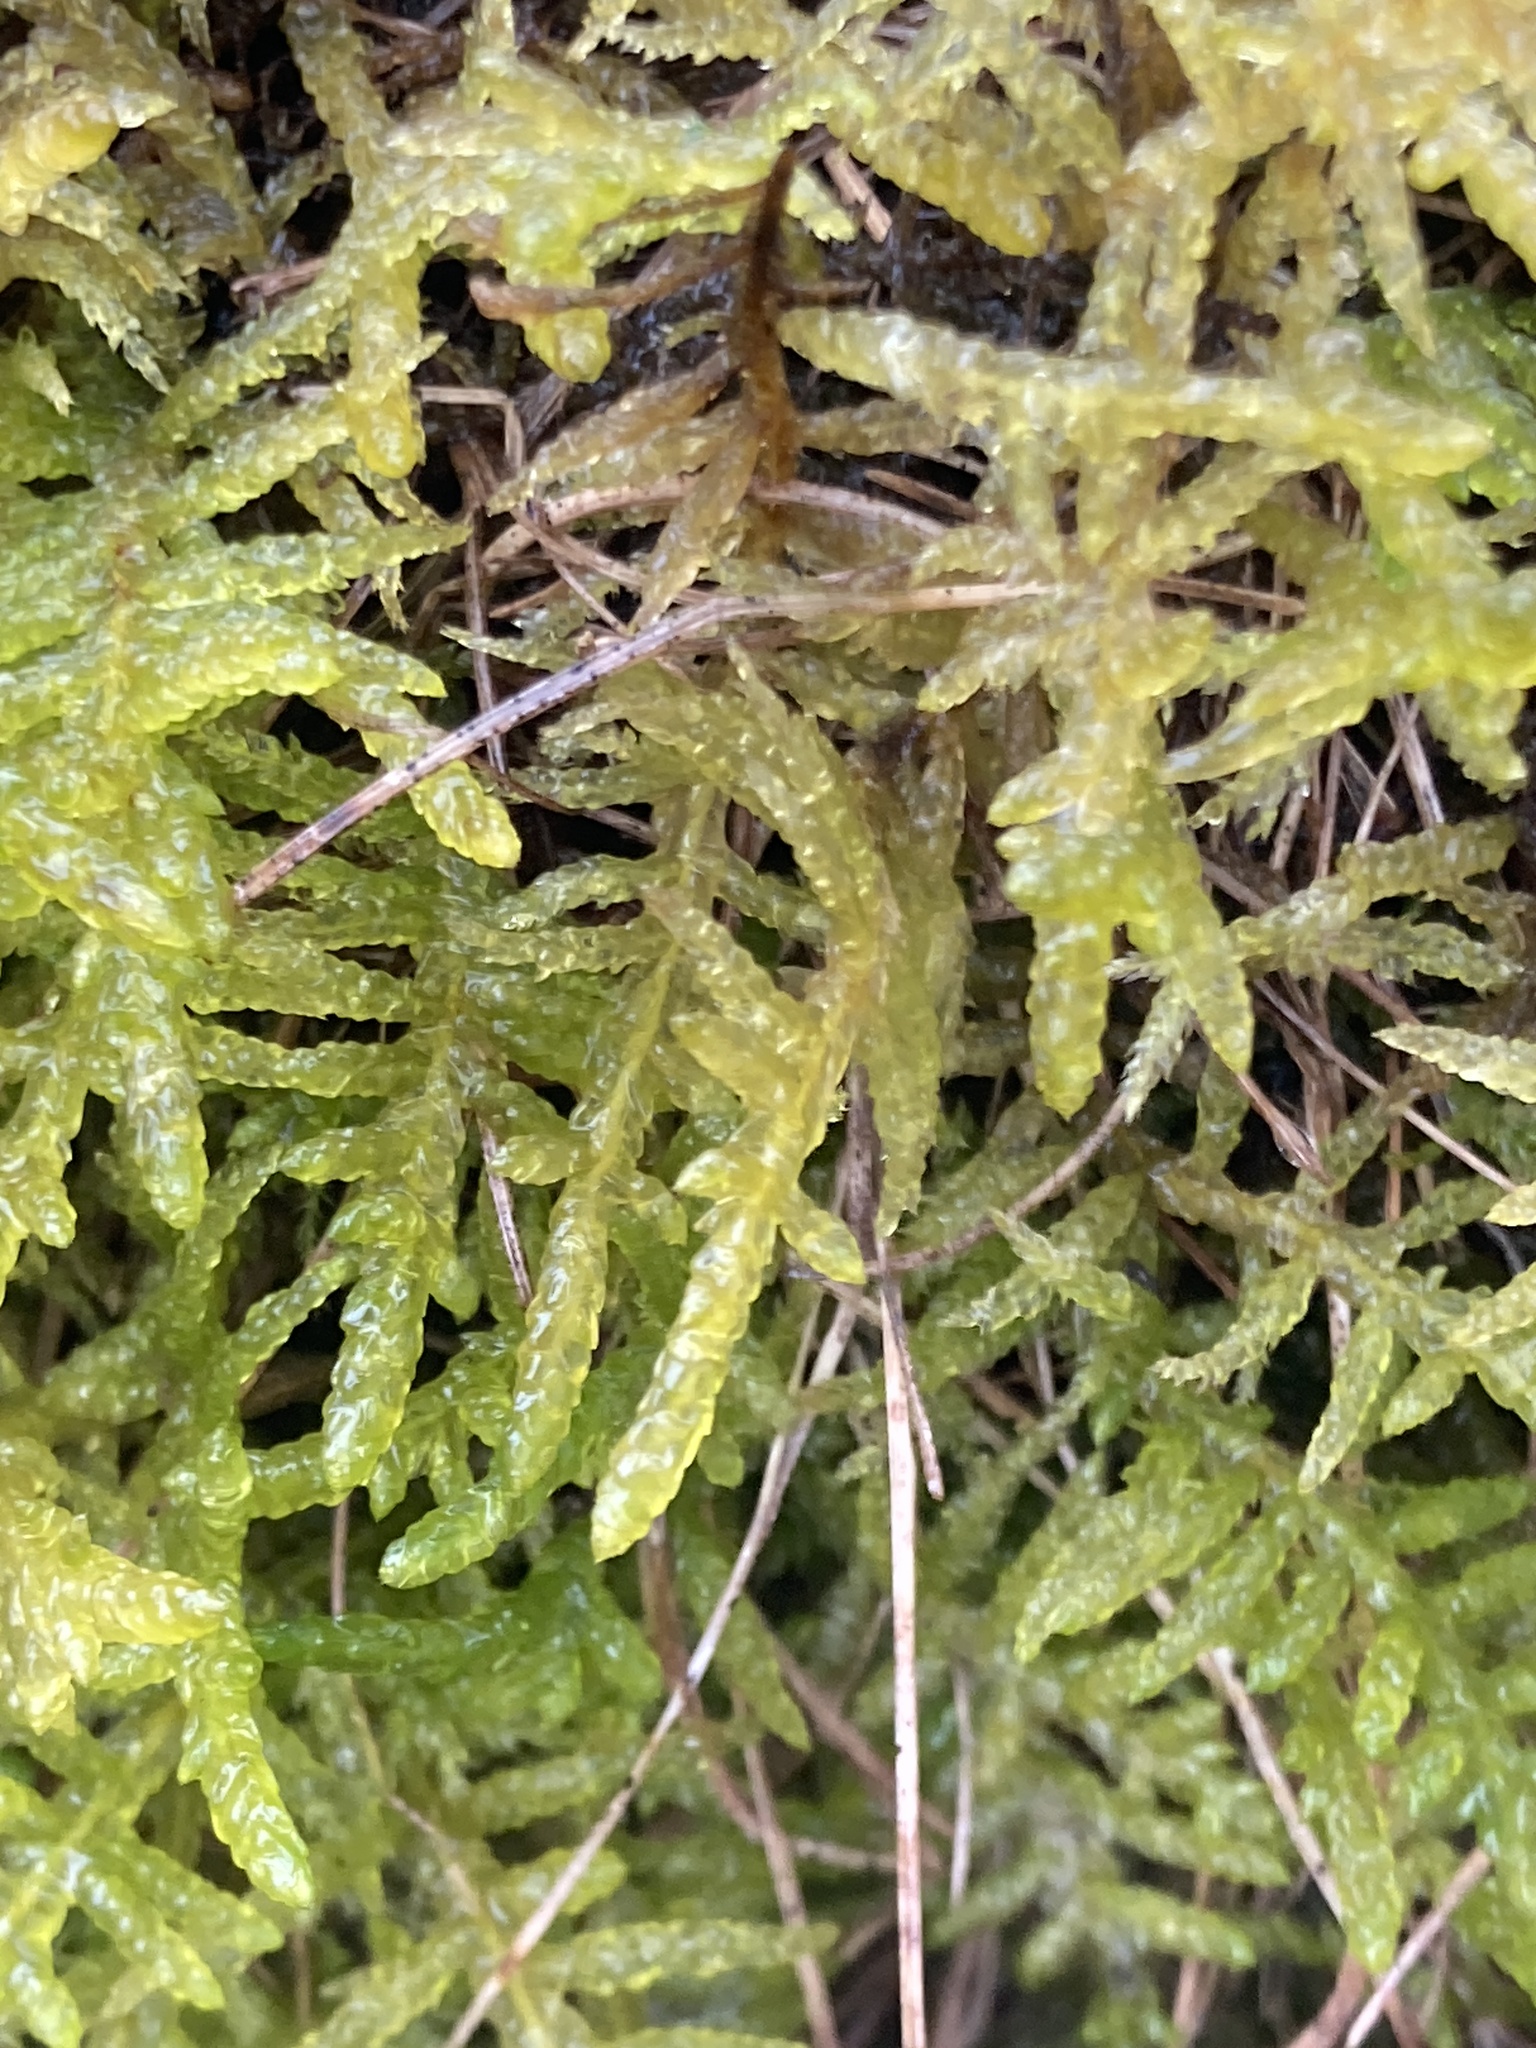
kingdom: Plantae
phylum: Bryophyta
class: Bryopsida
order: Hypnales
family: Brachytheciaceae
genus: Pseudoscleropodium
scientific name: Pseudoscleropodium purum
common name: Neat feather-moss
